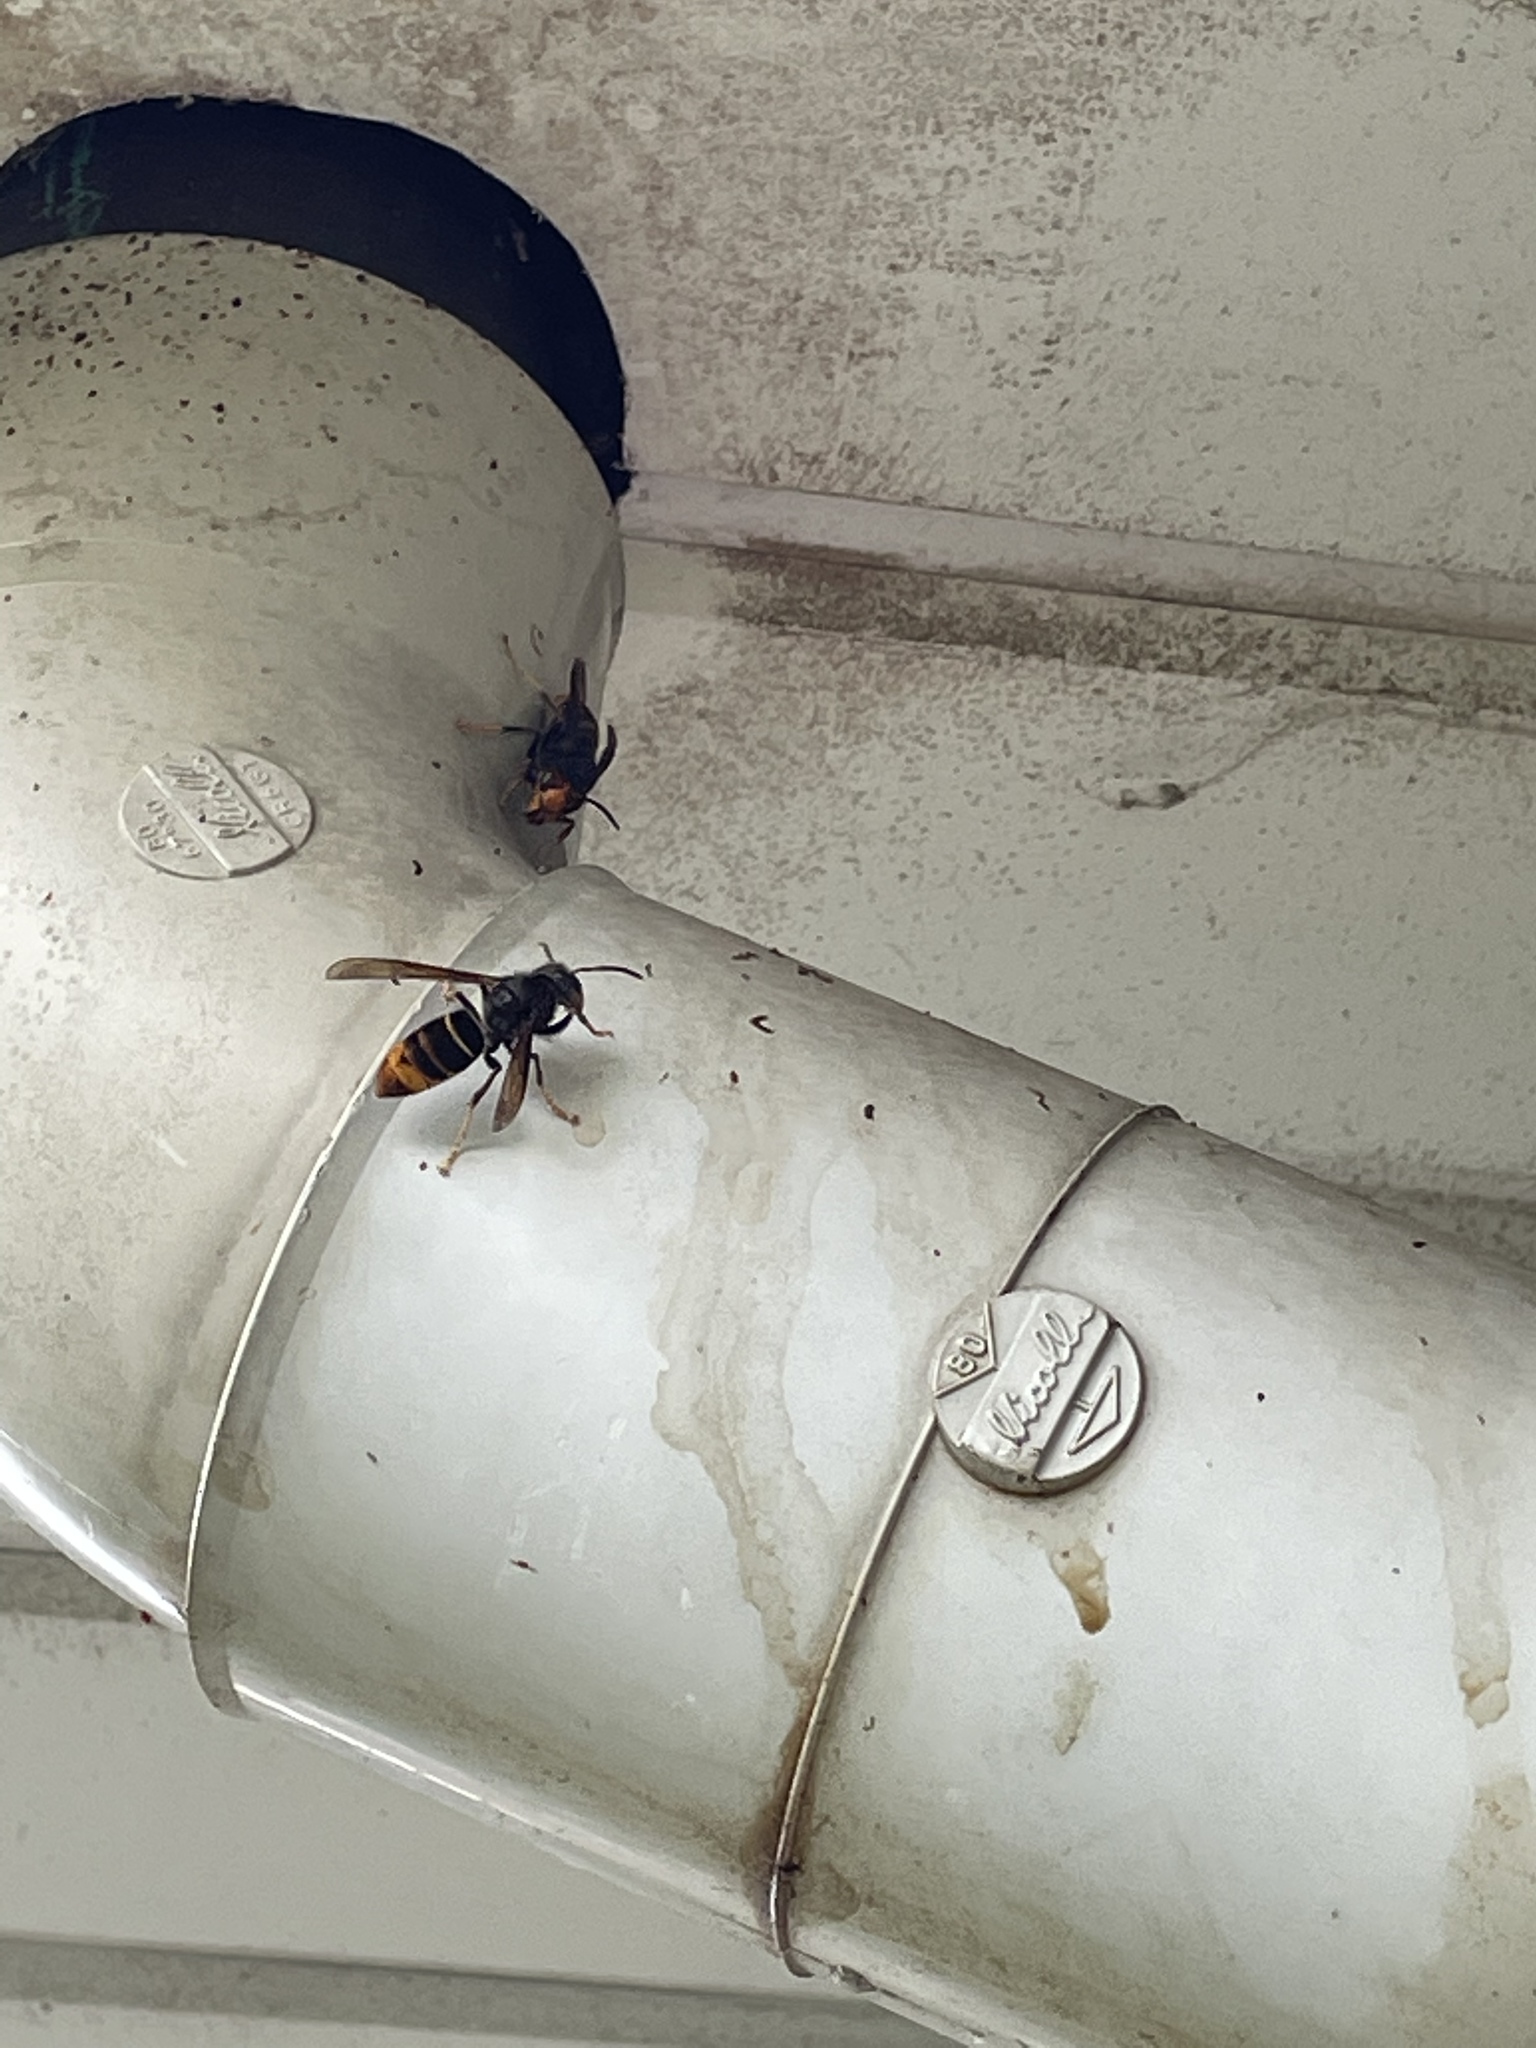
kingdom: Animalia
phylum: Arthropoda
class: Insecta
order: Hymenoptera
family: Vespidae
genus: Vespa
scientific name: Vespa velutina
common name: Asian hornet
